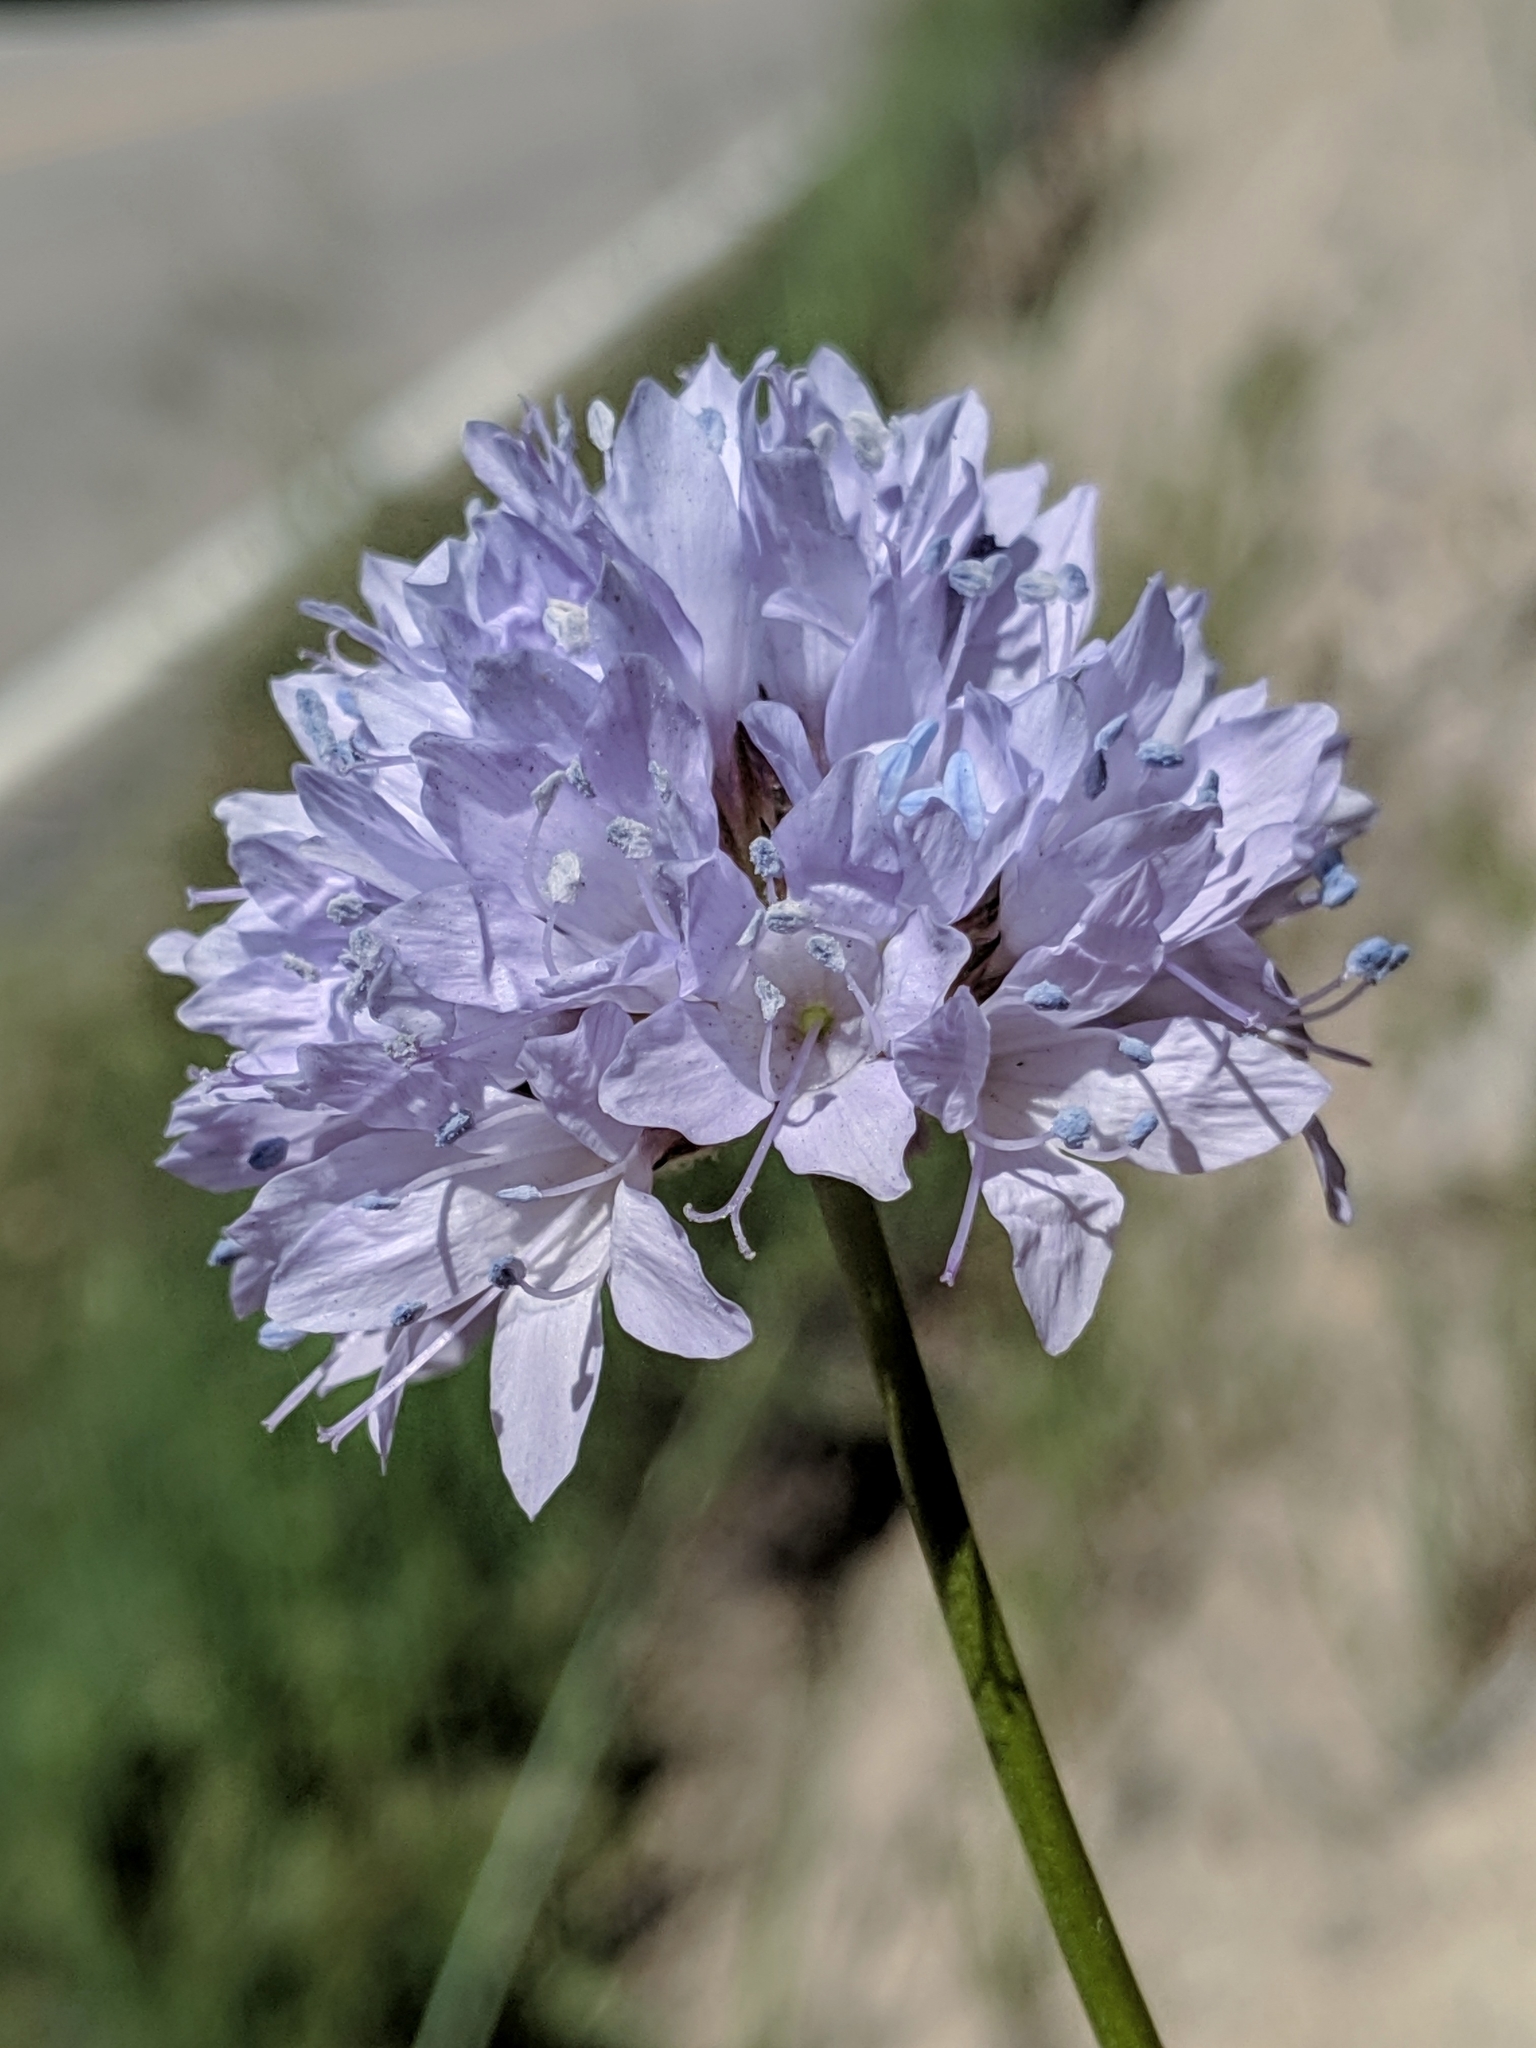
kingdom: Plantae
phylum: Tracheophyta
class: Magnoliopsida
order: Ericales
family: Polemoniaceae
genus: Gilia
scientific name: Gilia capitata
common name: Bluehead gilia
